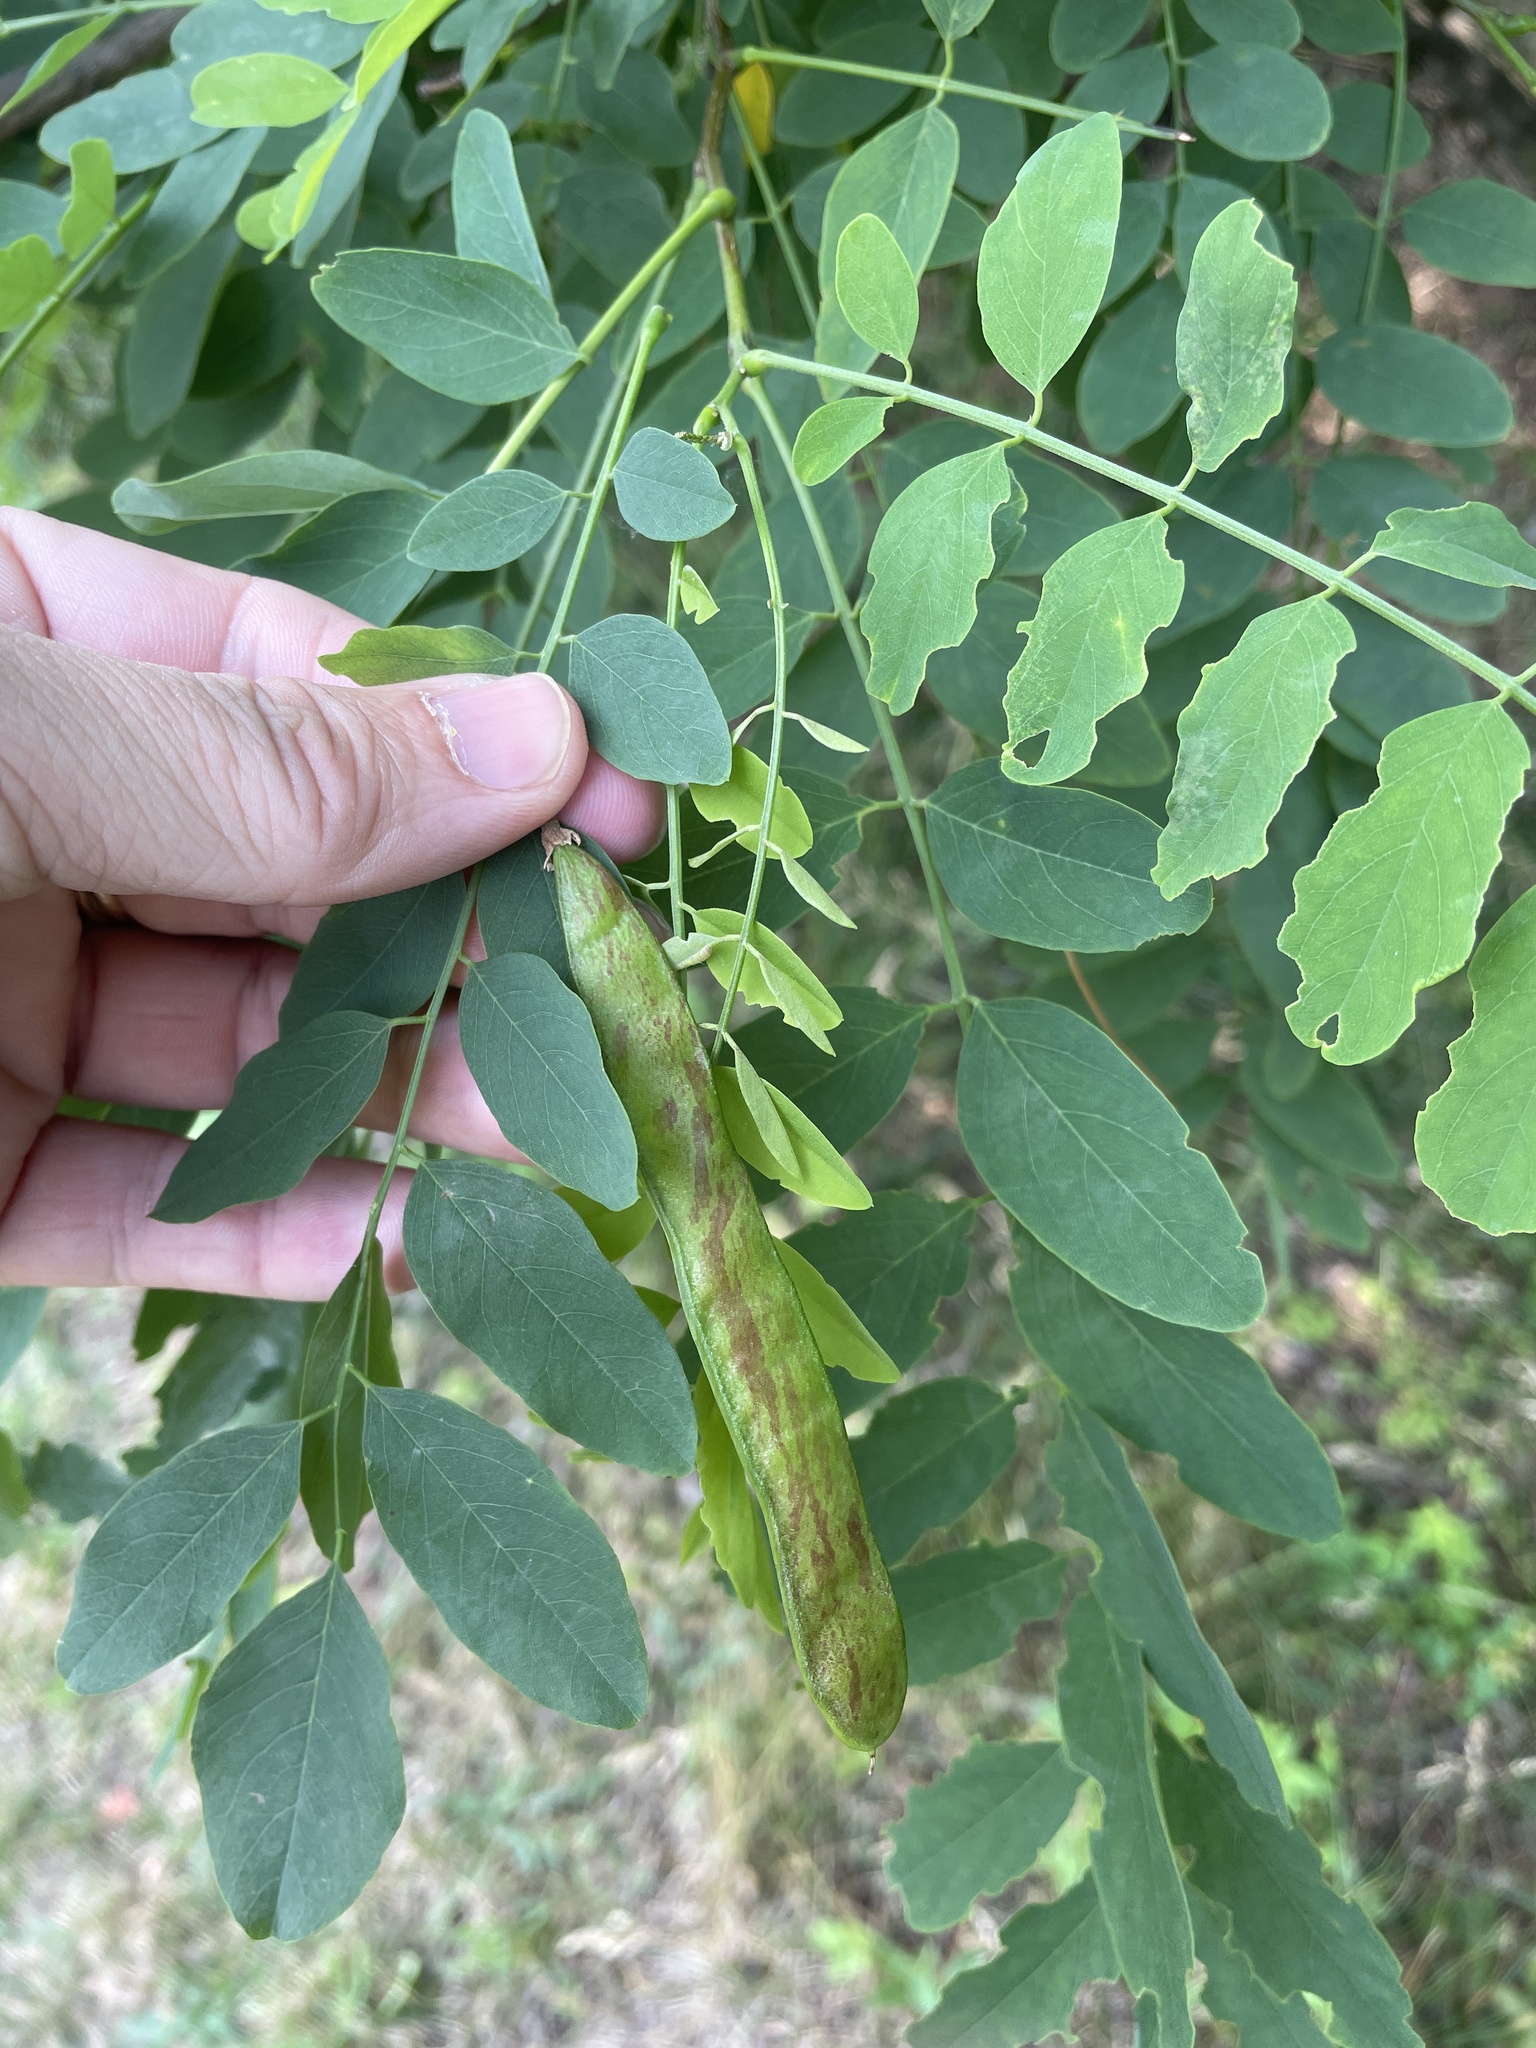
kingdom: Plantae
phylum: Tracheophyta
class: Magnoliopsida
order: Fabales
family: Fabaceae
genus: Robinia
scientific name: Robinia pseudoacacia
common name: Black locust
